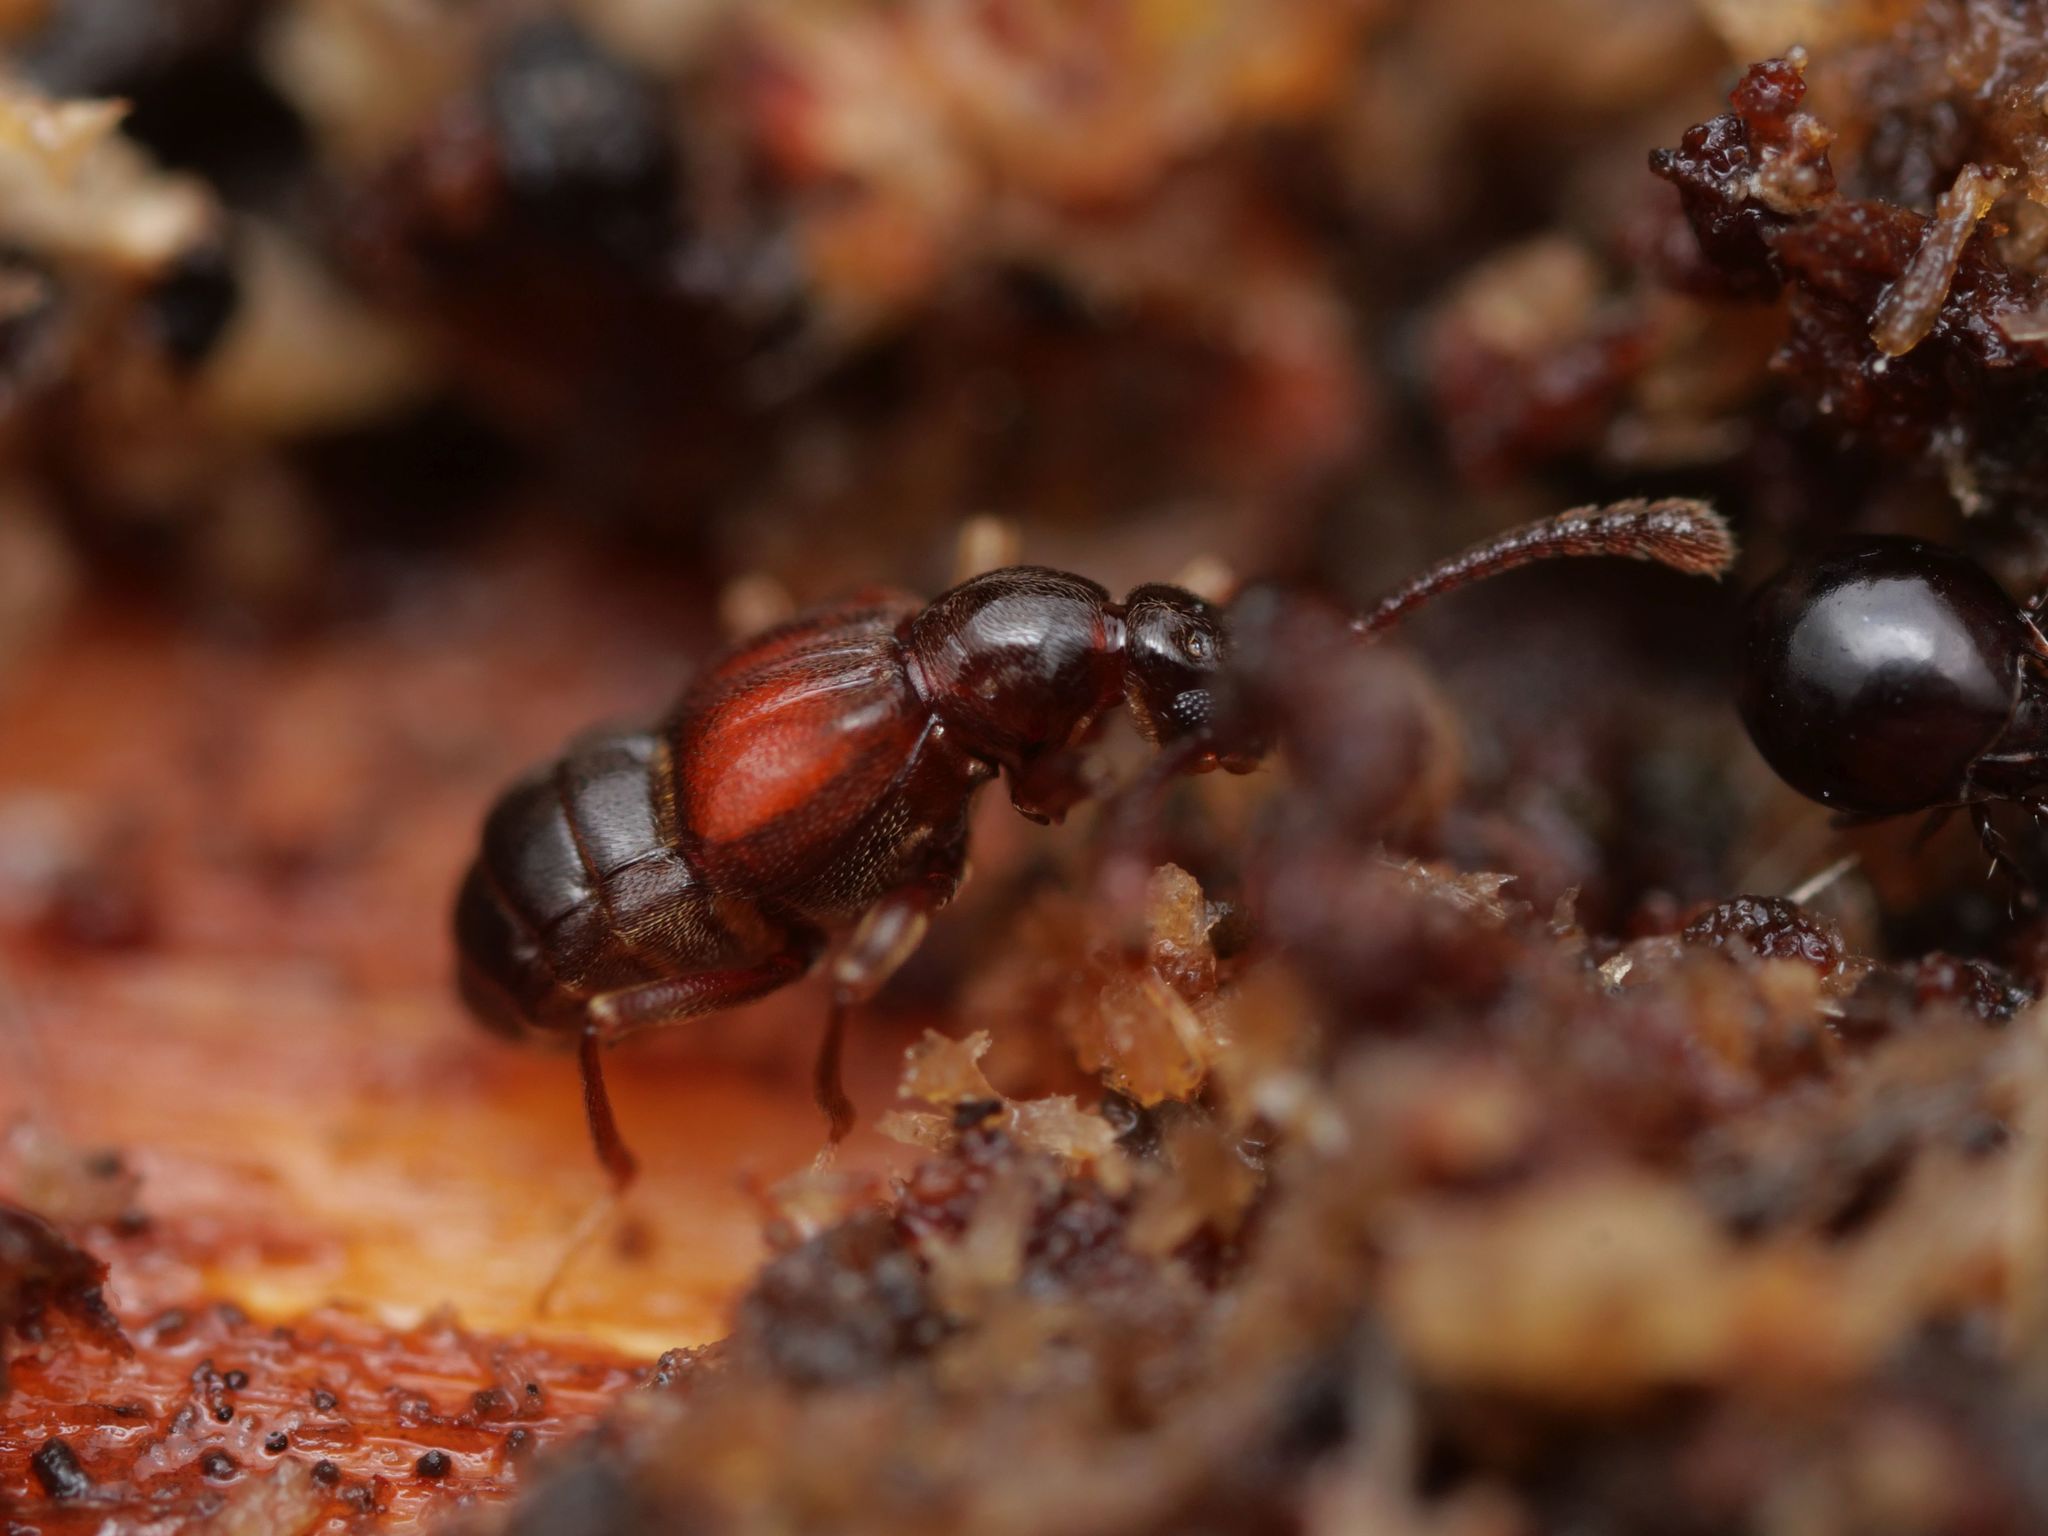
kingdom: Animalia
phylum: Arthropoda
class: Insecta
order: Coleoptera
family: Staphylinidae
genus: Tyrus
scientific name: Tyrus mucronatus
